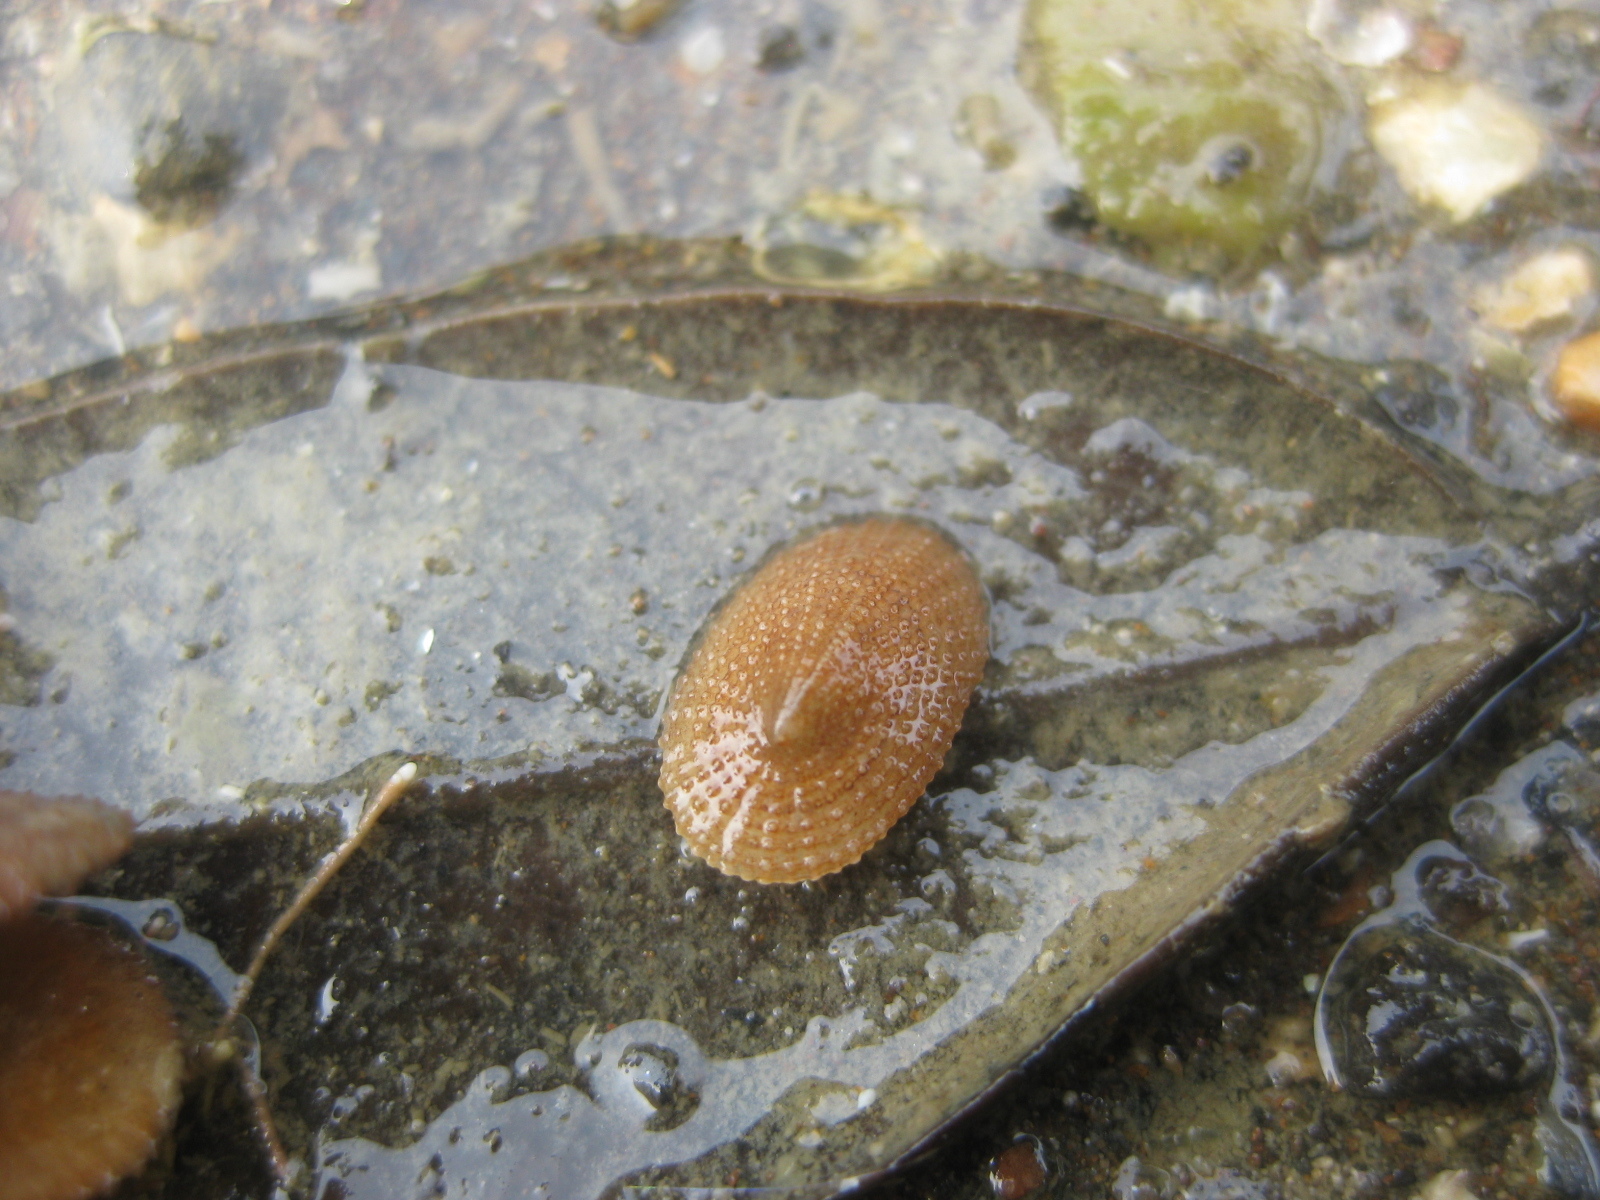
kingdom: Animalia
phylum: Mollusca
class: Gastropoda
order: Lepetellida
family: Fissurellidae
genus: Tugali
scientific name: Tugali suteri
